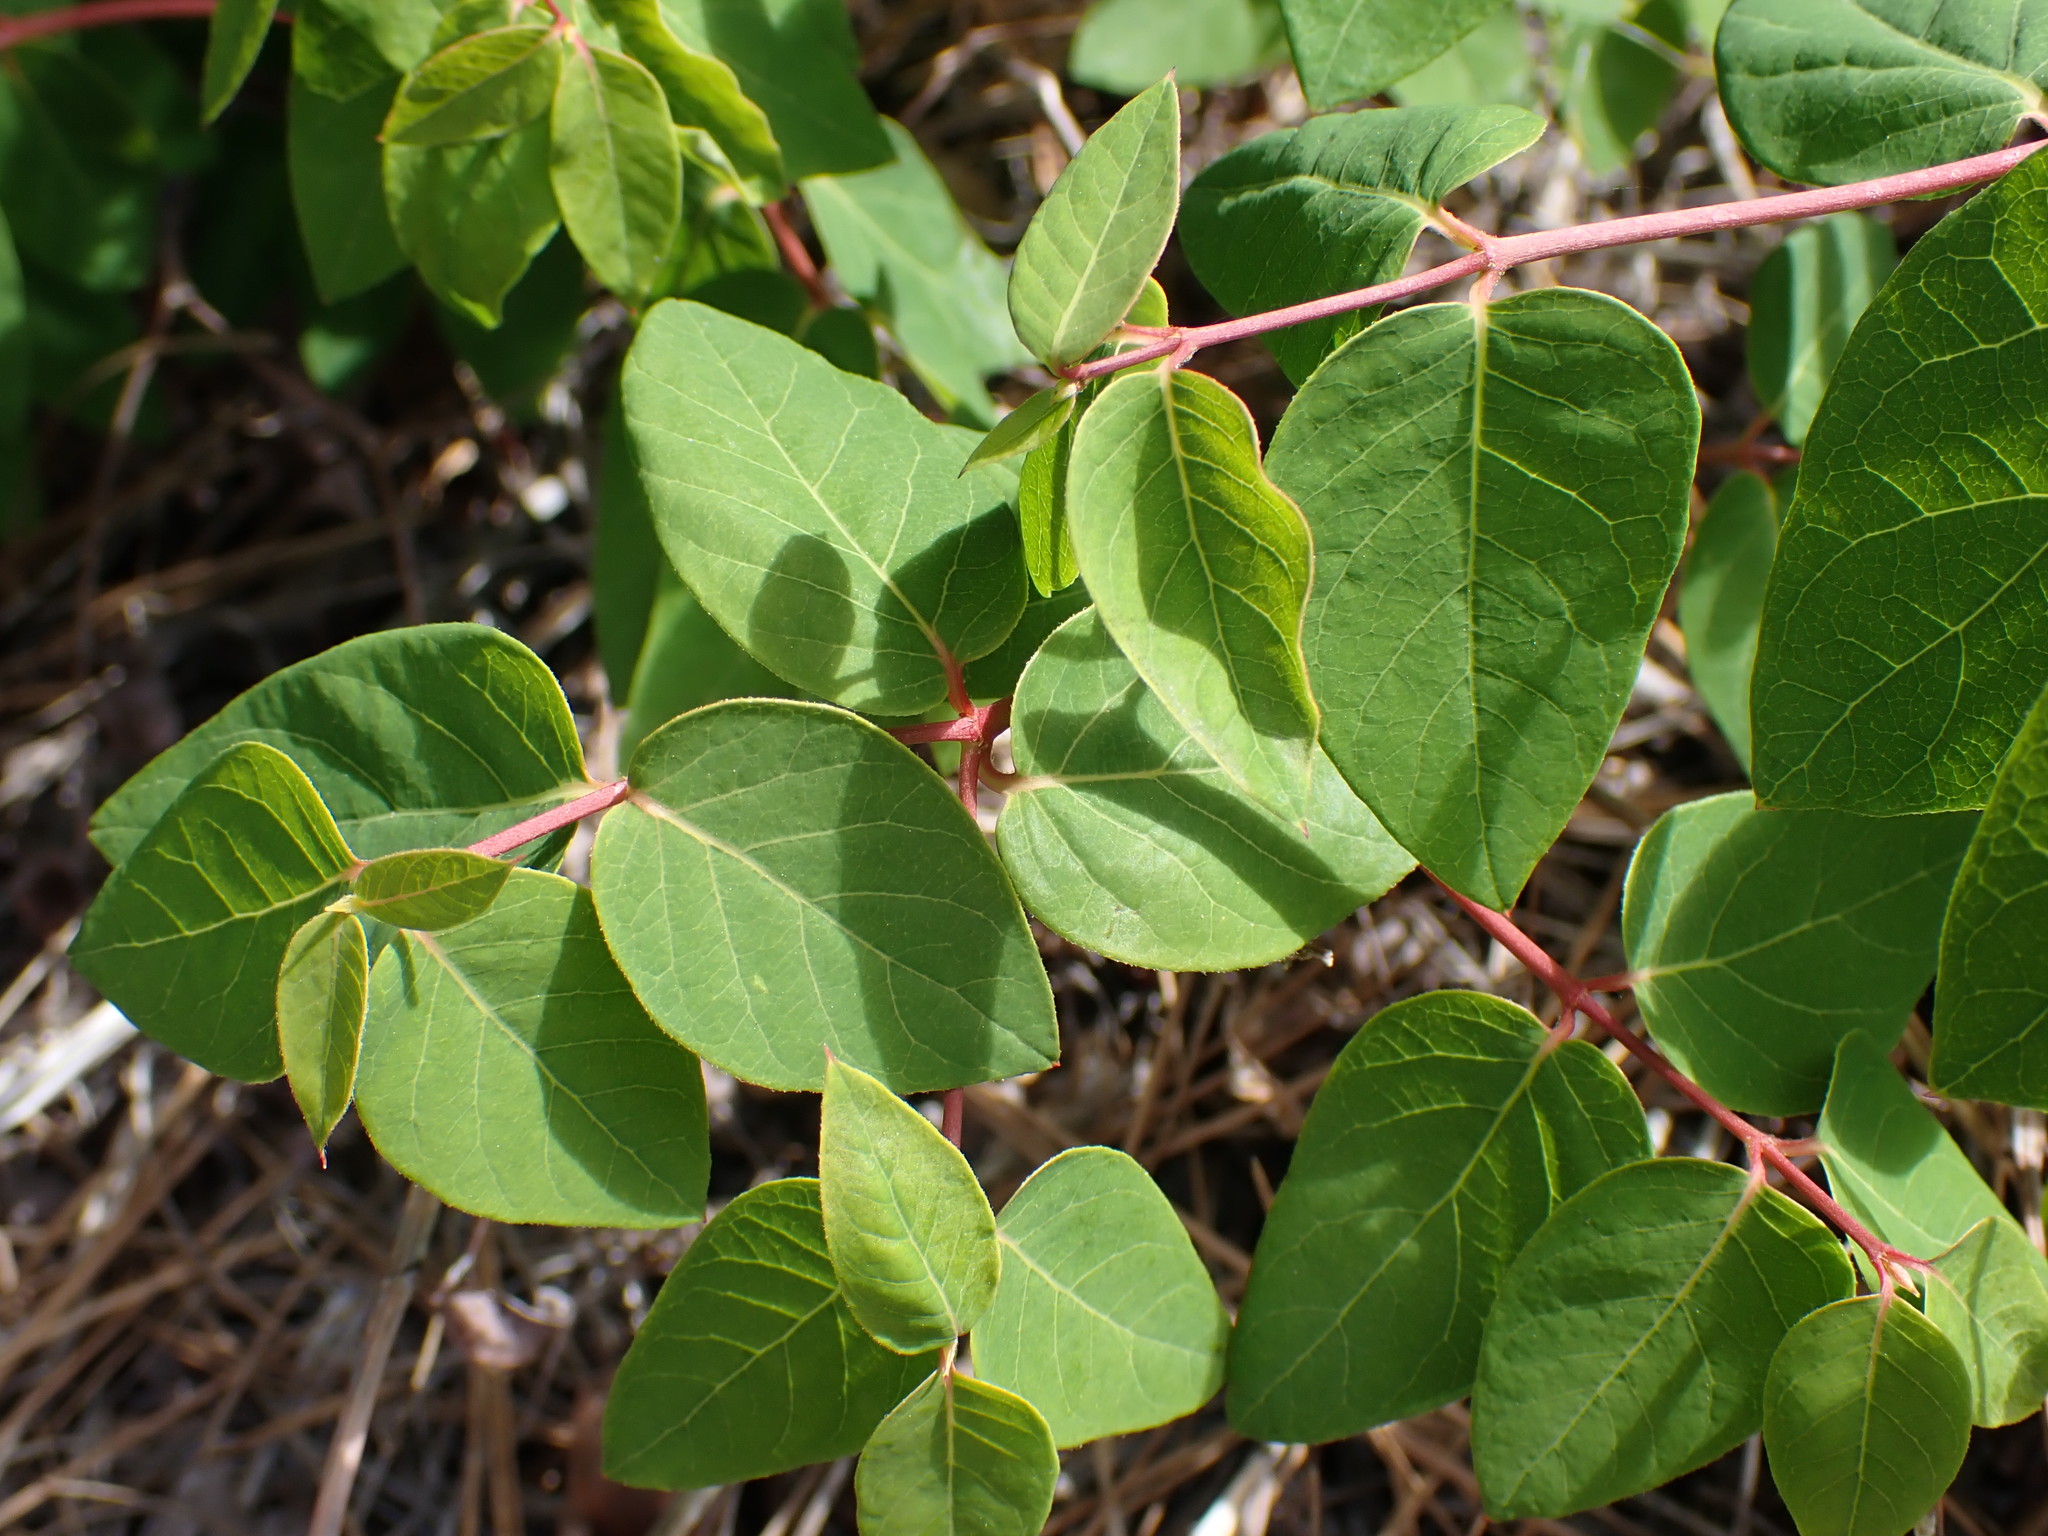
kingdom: Plantae
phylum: Tracheophyta
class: Magnoliopsida
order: Gentianales
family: Apocynaceae
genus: Apocynum
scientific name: Apocynum androsaemifolium
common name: Spreading dogbane
